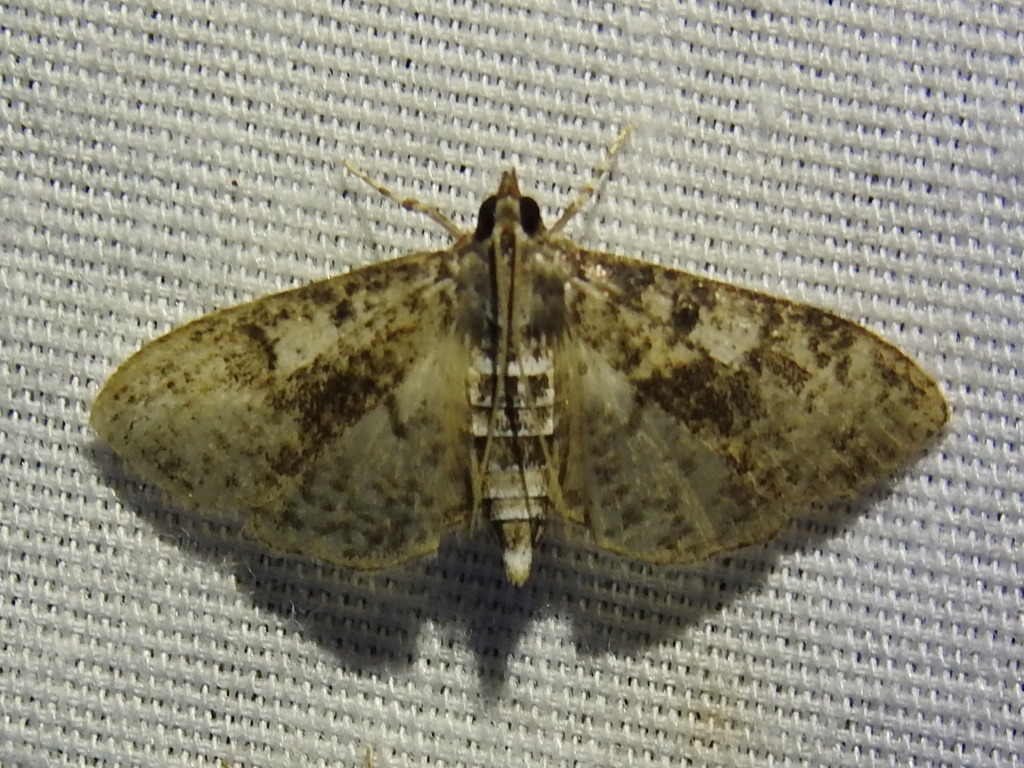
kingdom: Animalia
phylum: Arthropoda
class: Insecta
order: Lepidoptera
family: Crambidae
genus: Palpita
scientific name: Palpita magniferalis
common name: Splendid palpita moth
